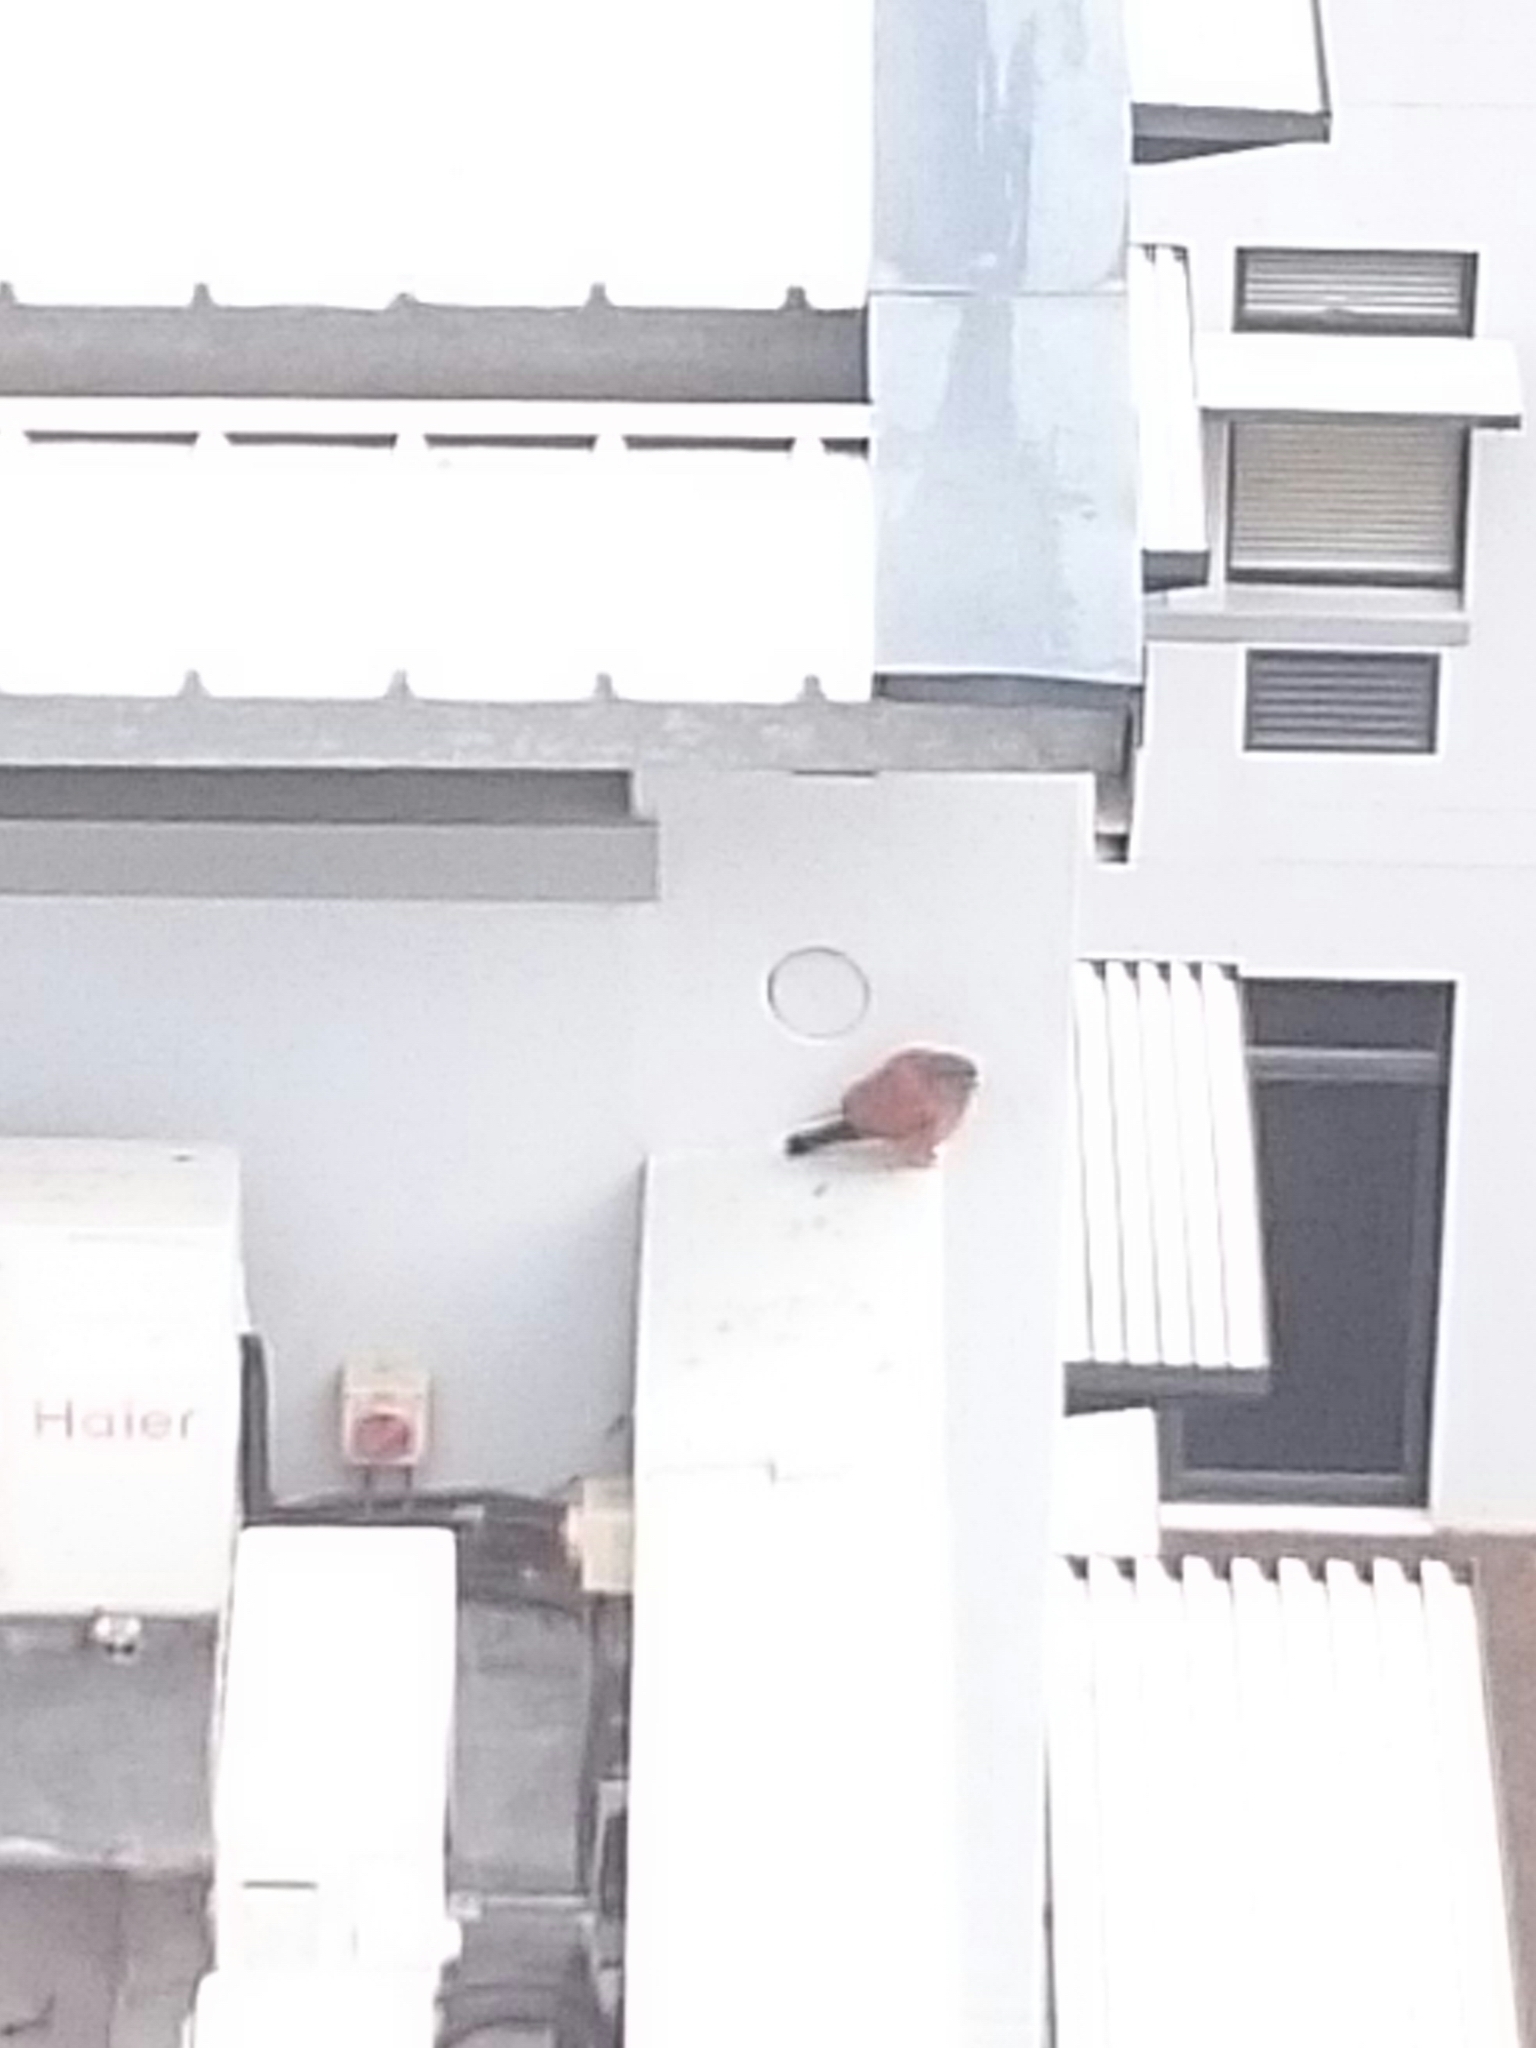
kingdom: Animalia
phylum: Chordata
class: Aves
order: Falconiformes
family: Falconidae
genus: Falco
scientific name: Falco rupicolus
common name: Rock kestrel
